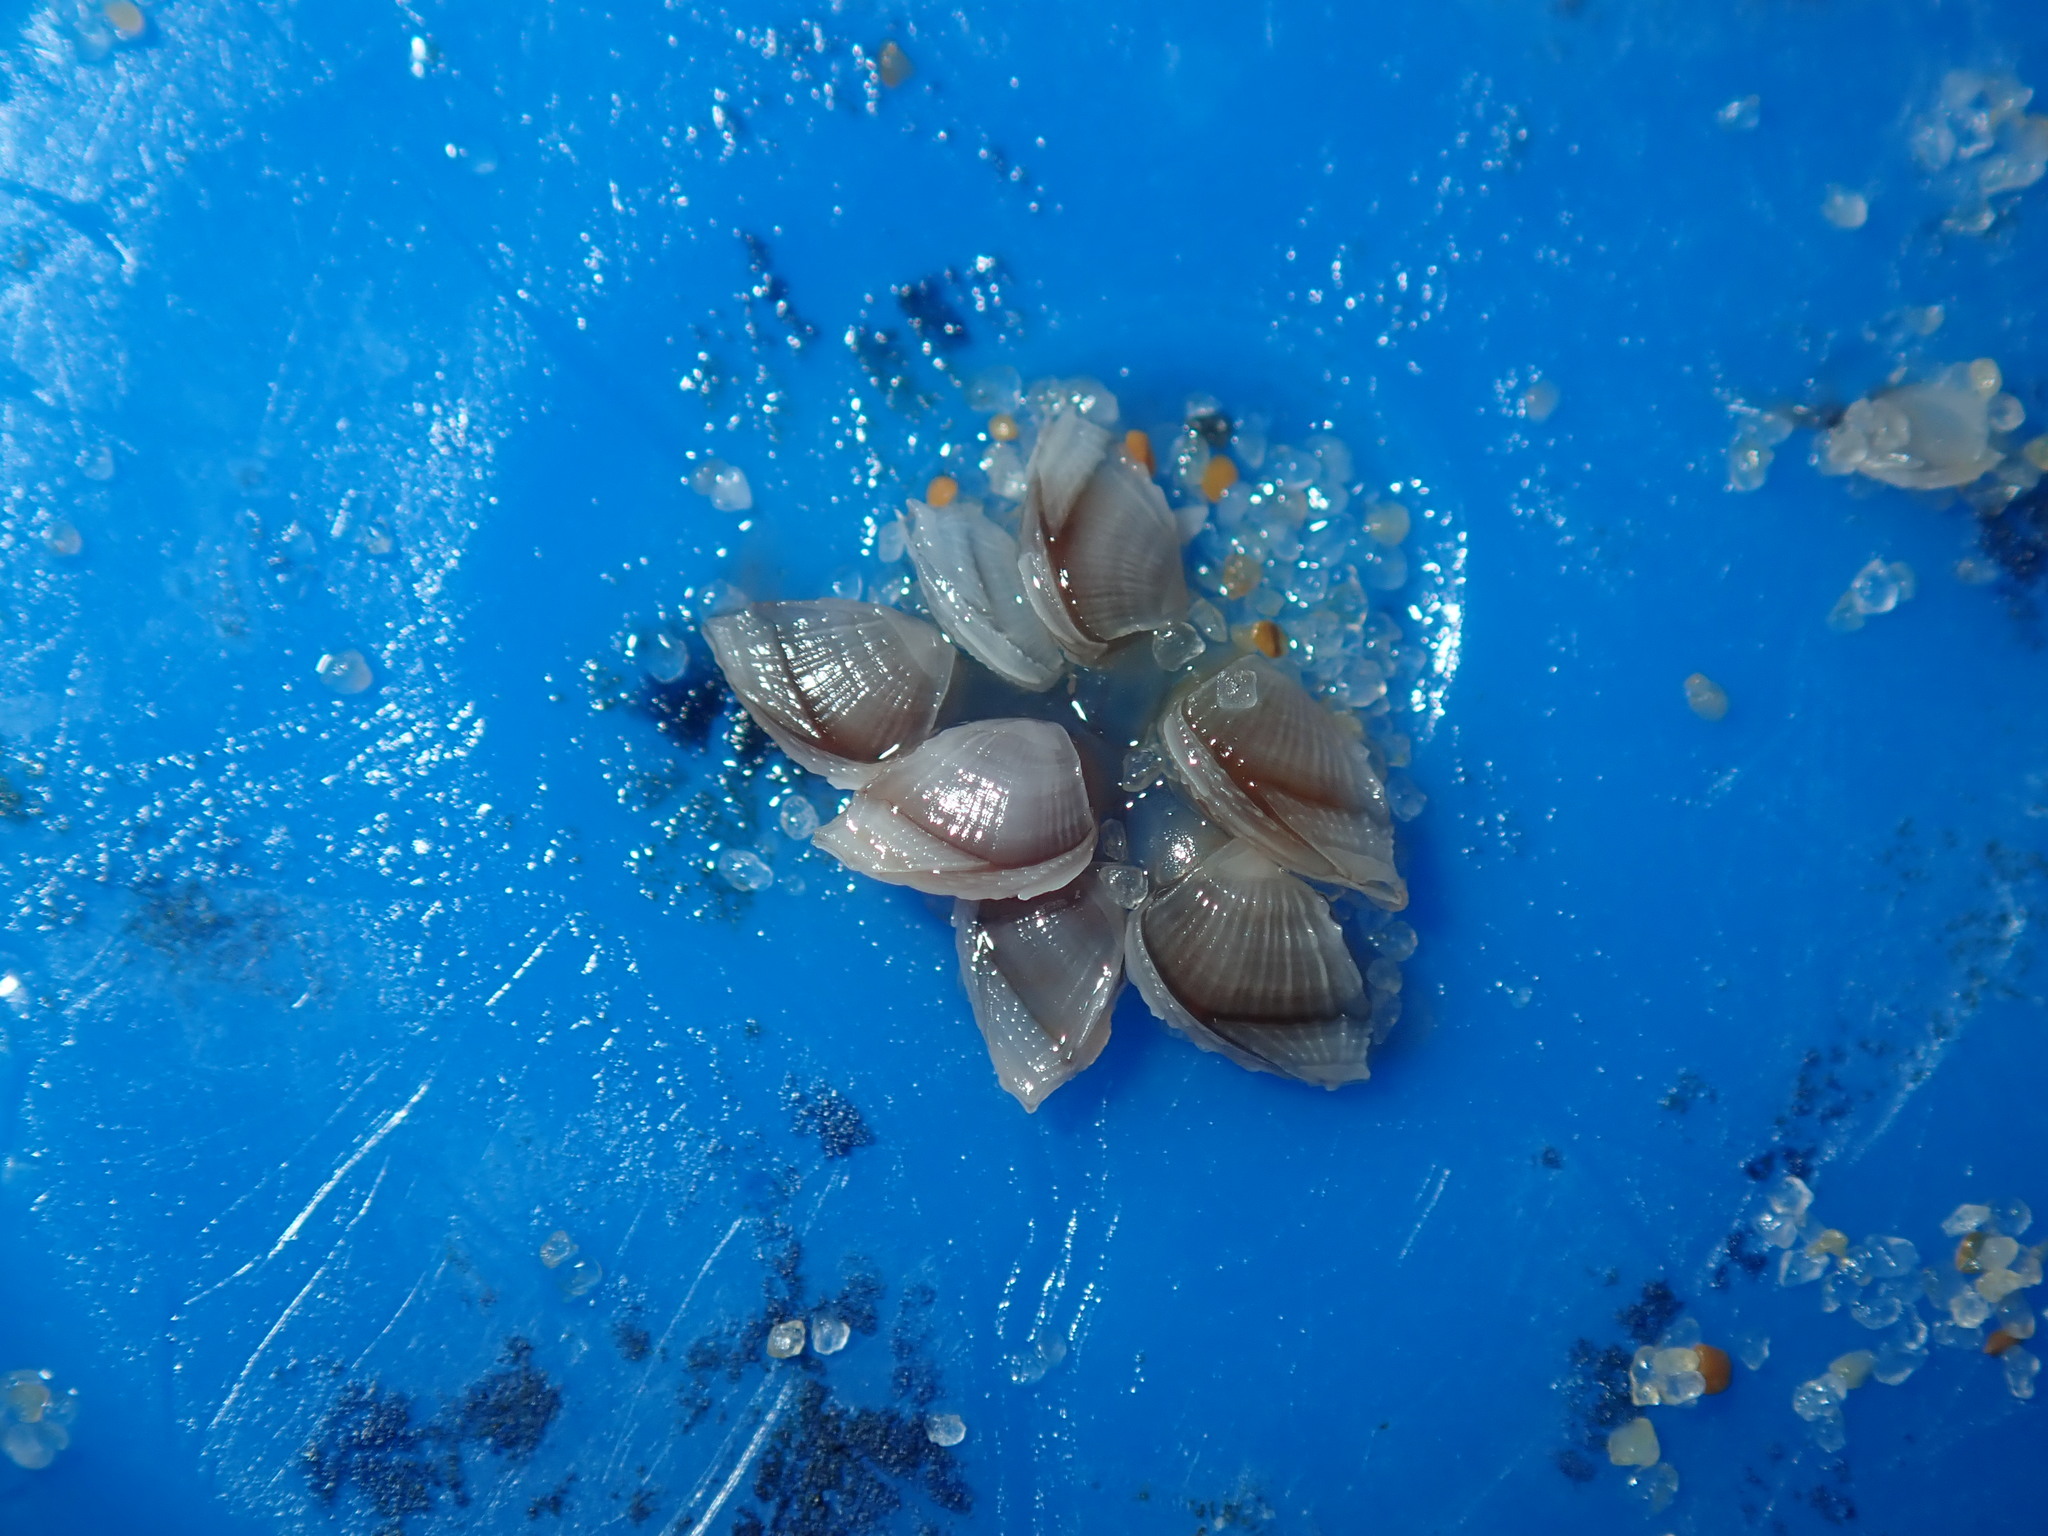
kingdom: Animalia
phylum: Arthropoda
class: Maxillopoda
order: Pedunculata
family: Lepadidae
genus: Lepas
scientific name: Lepas pectinata
